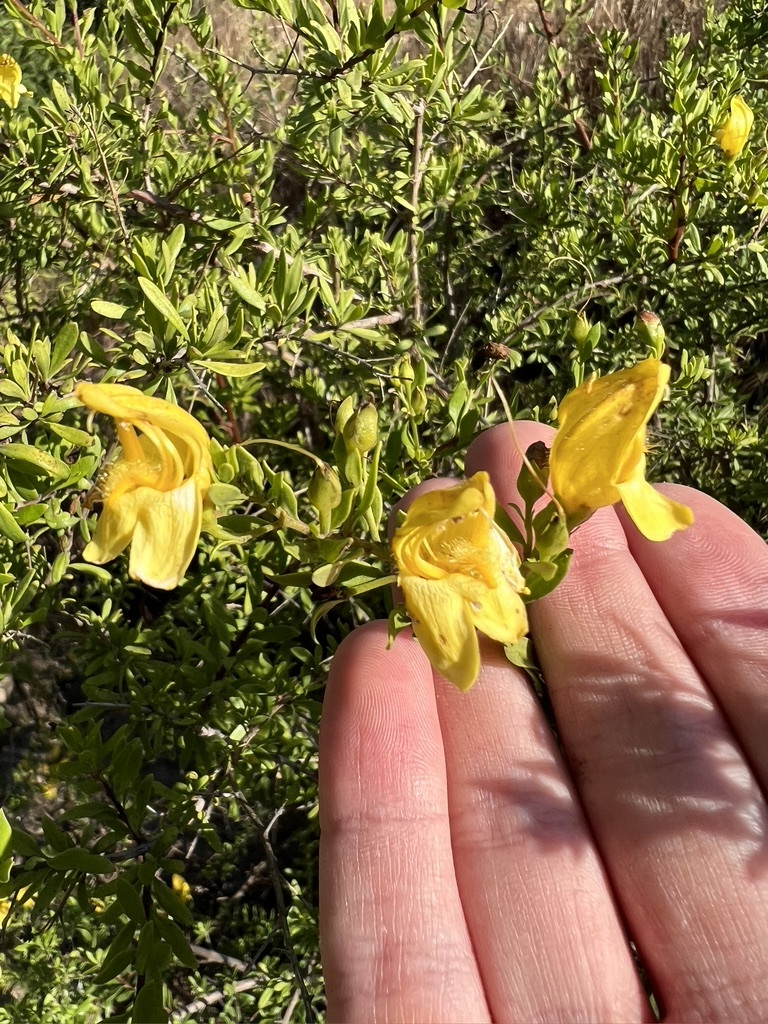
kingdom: Plantae
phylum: Tracheophyta
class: Magnoliopsida
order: Lamiales
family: Plantaginaceae
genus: Keckiella
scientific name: Keckiella antirrhinoides
